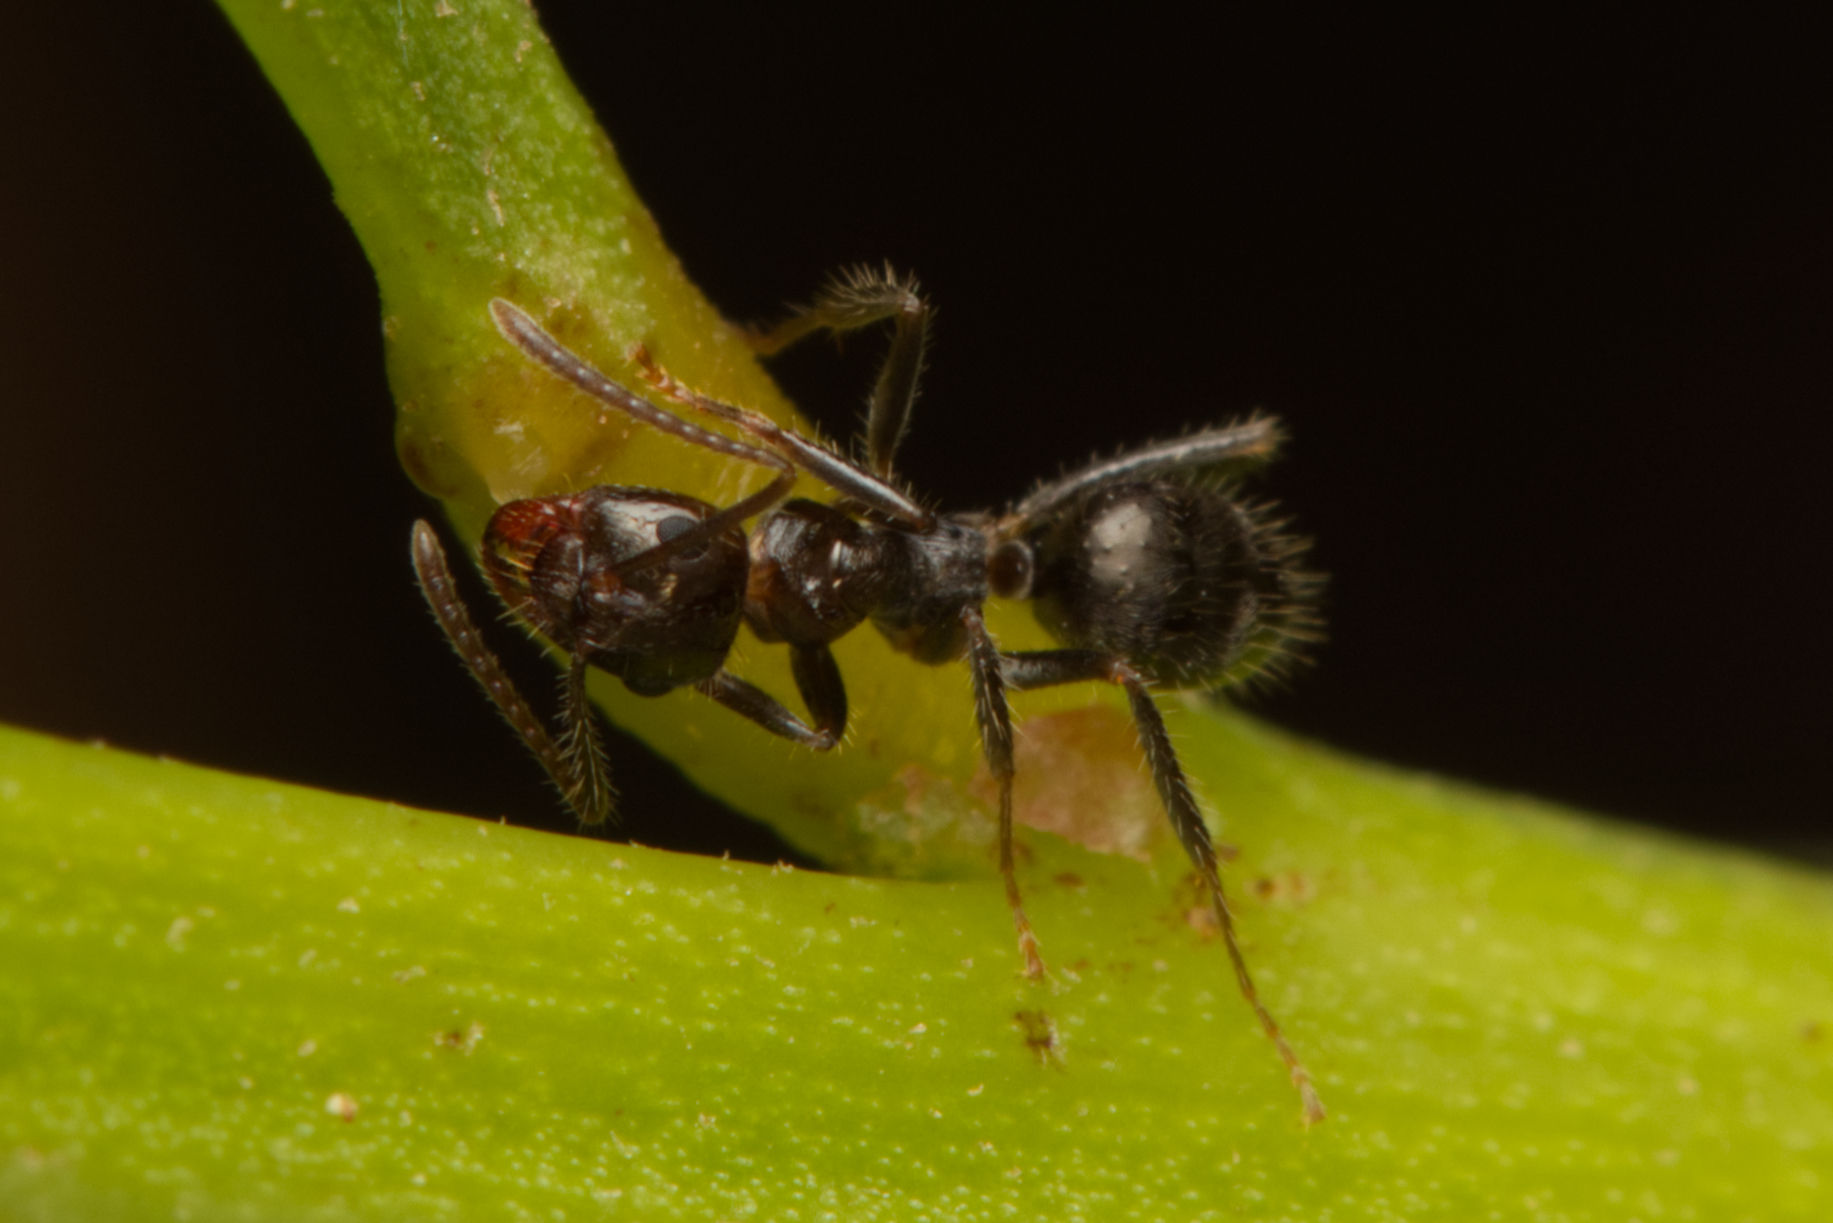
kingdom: Animalia
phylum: Arthropoda
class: Insecta
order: Hymenoptera
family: Formicidae
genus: Notoncus
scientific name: Notoncus capitatus
